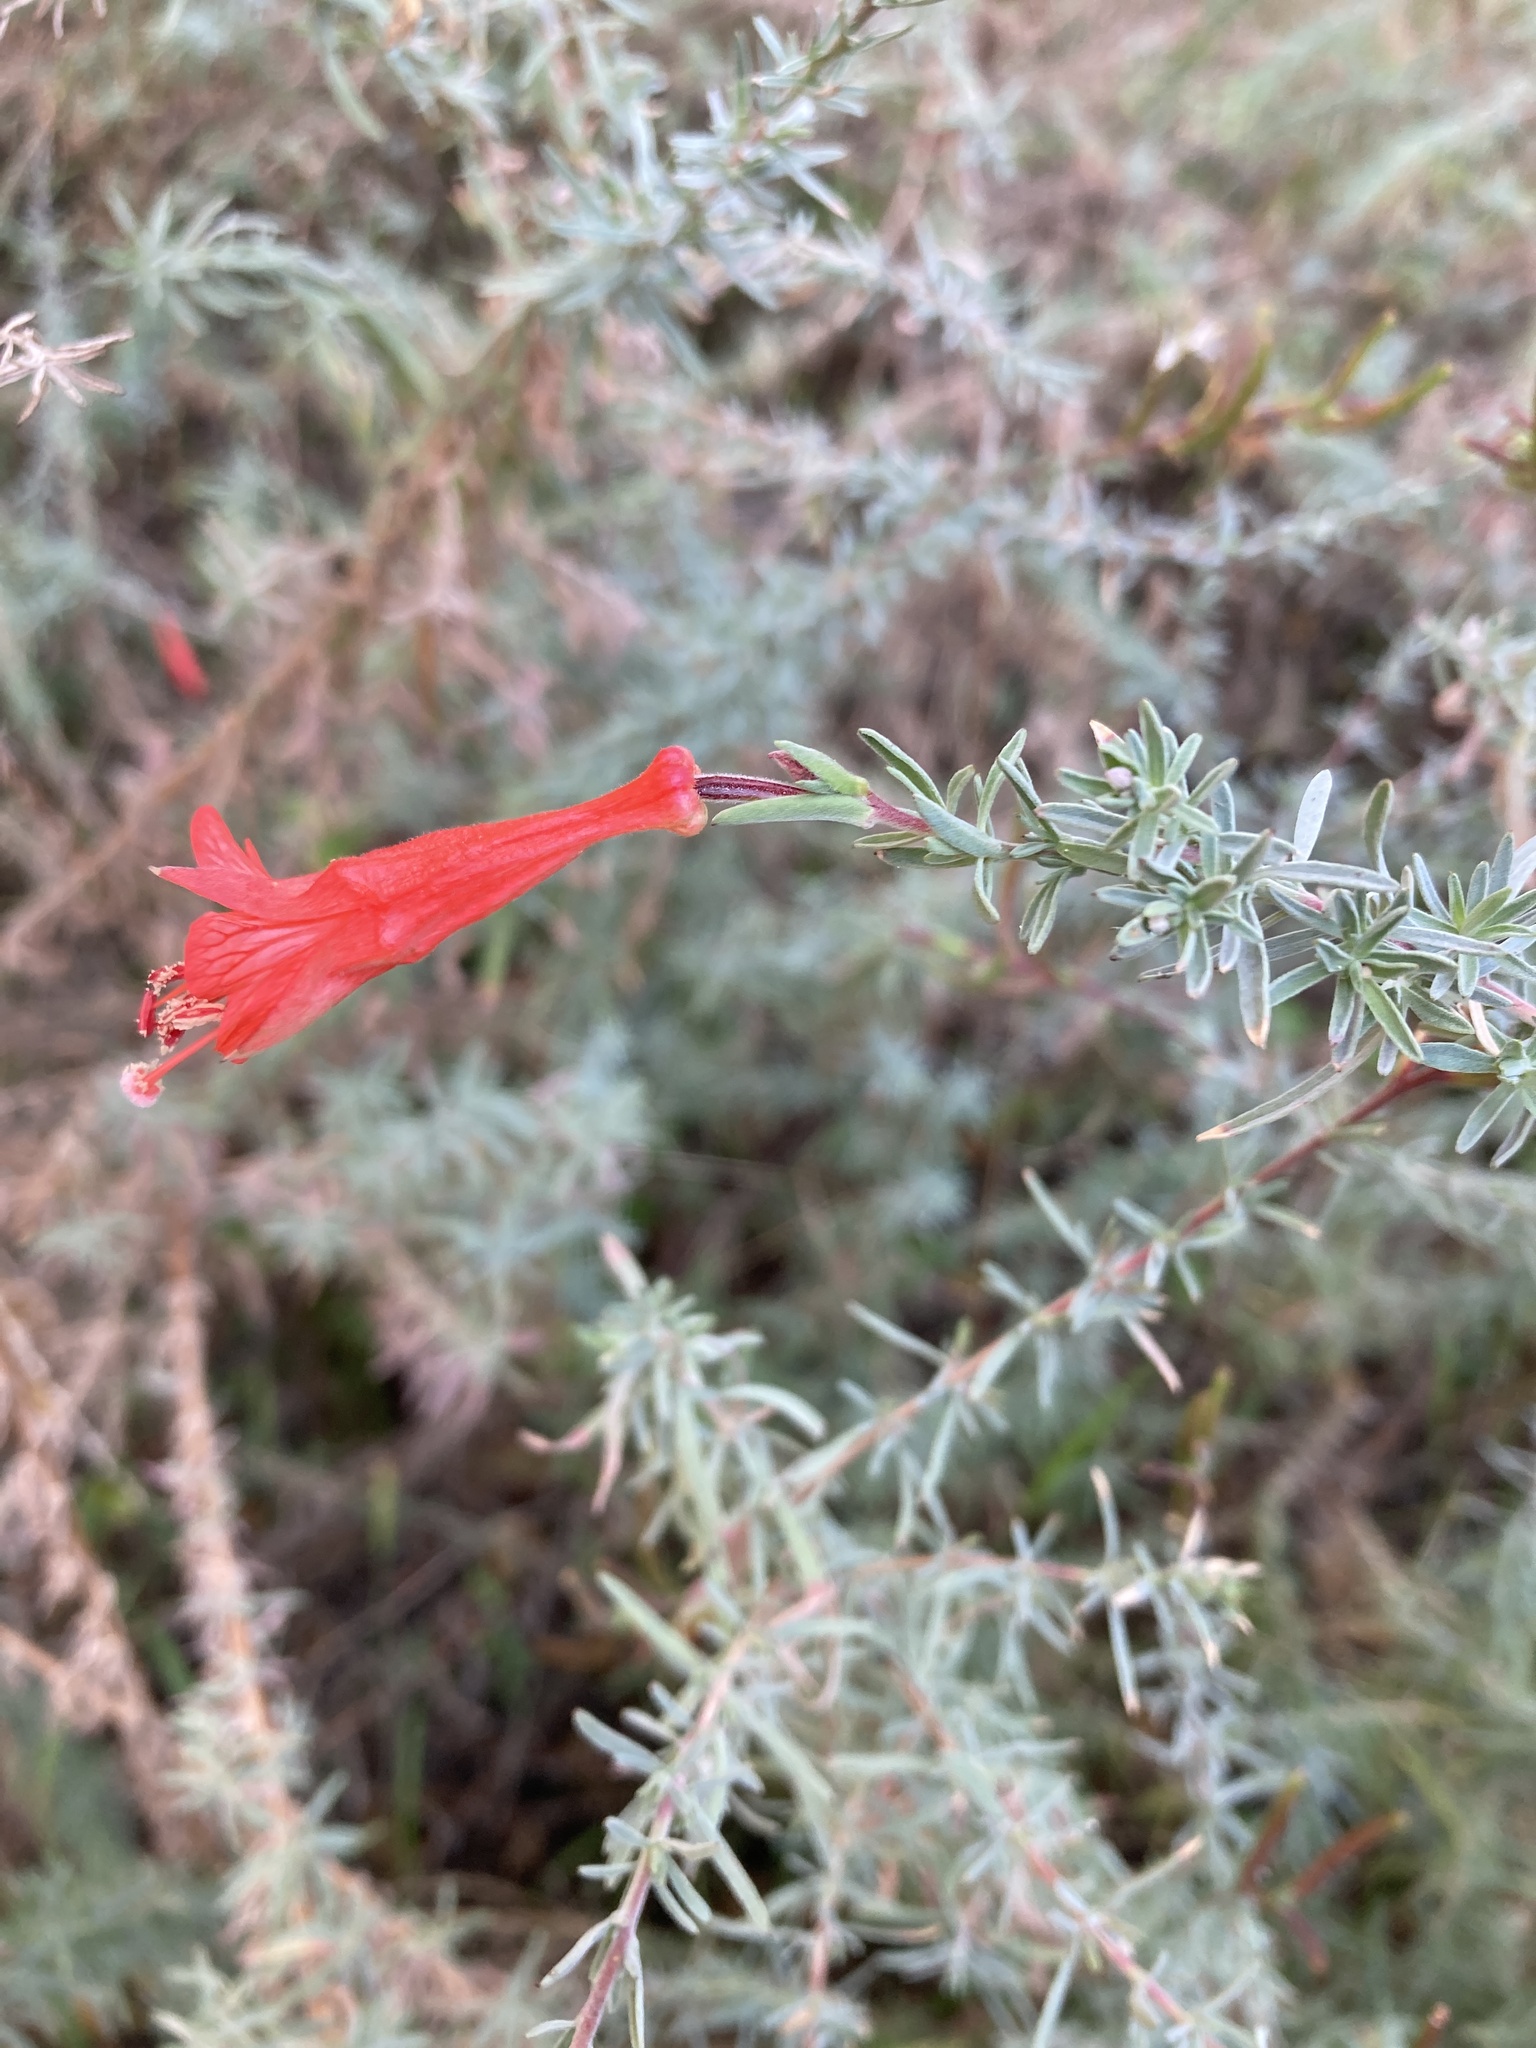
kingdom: Plantae
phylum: Tracheophyta
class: Magnoliopsida
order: Myrtales
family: Onagraceae
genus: Epilobium
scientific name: Epilobium canum
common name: California-fuchsia
